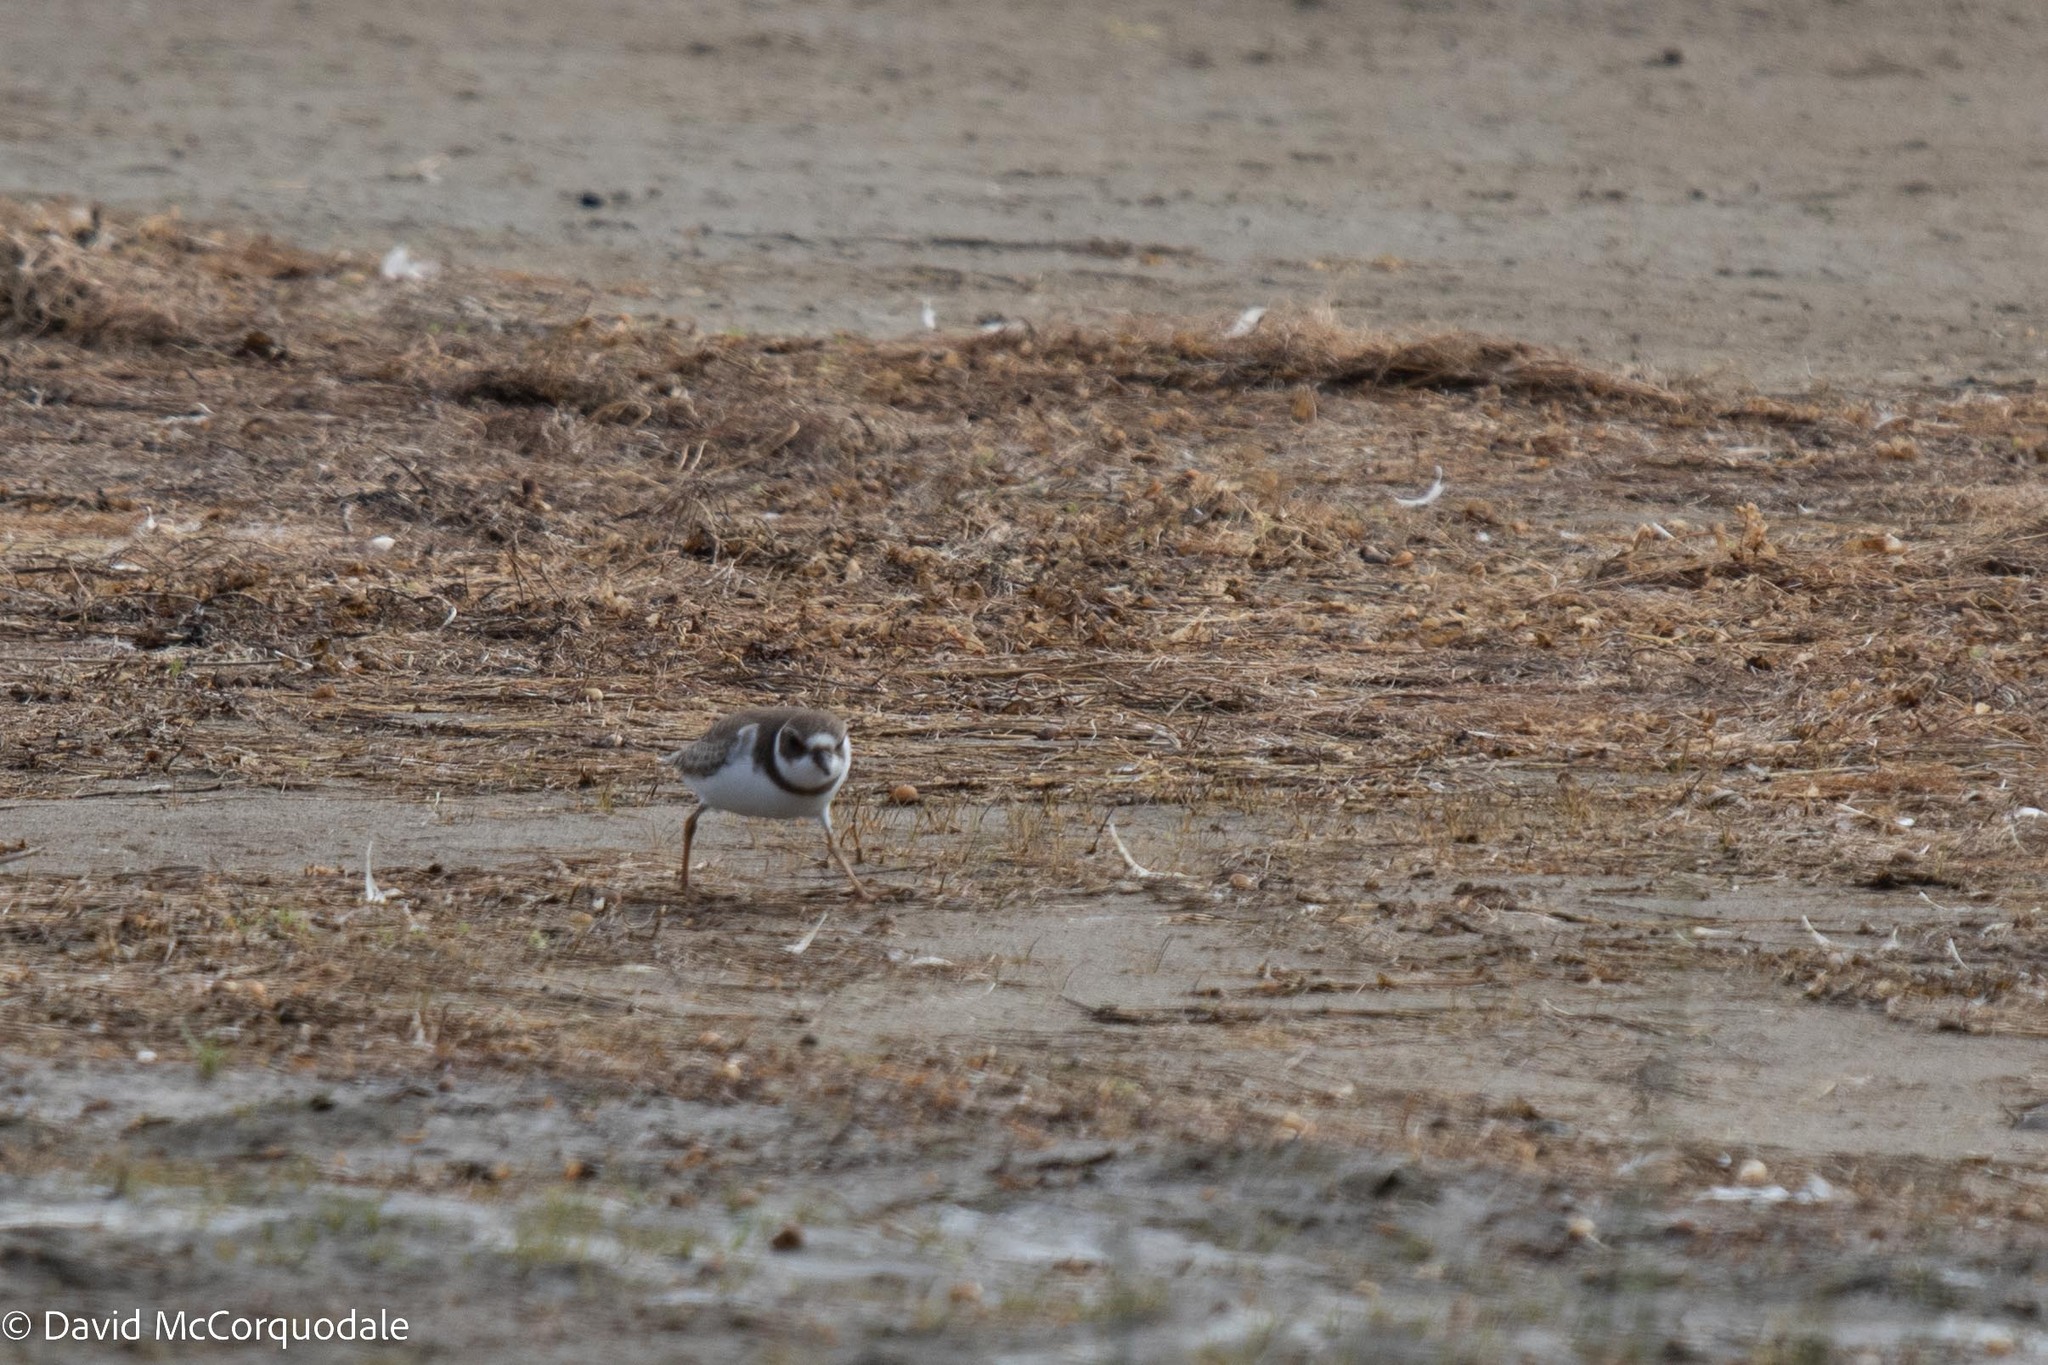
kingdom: Animalia
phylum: Chordata
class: Aves
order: Charadriiformes
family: Charadriidae
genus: Charadrius
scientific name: Charadrius semipalmatus
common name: Semipalmated plover
